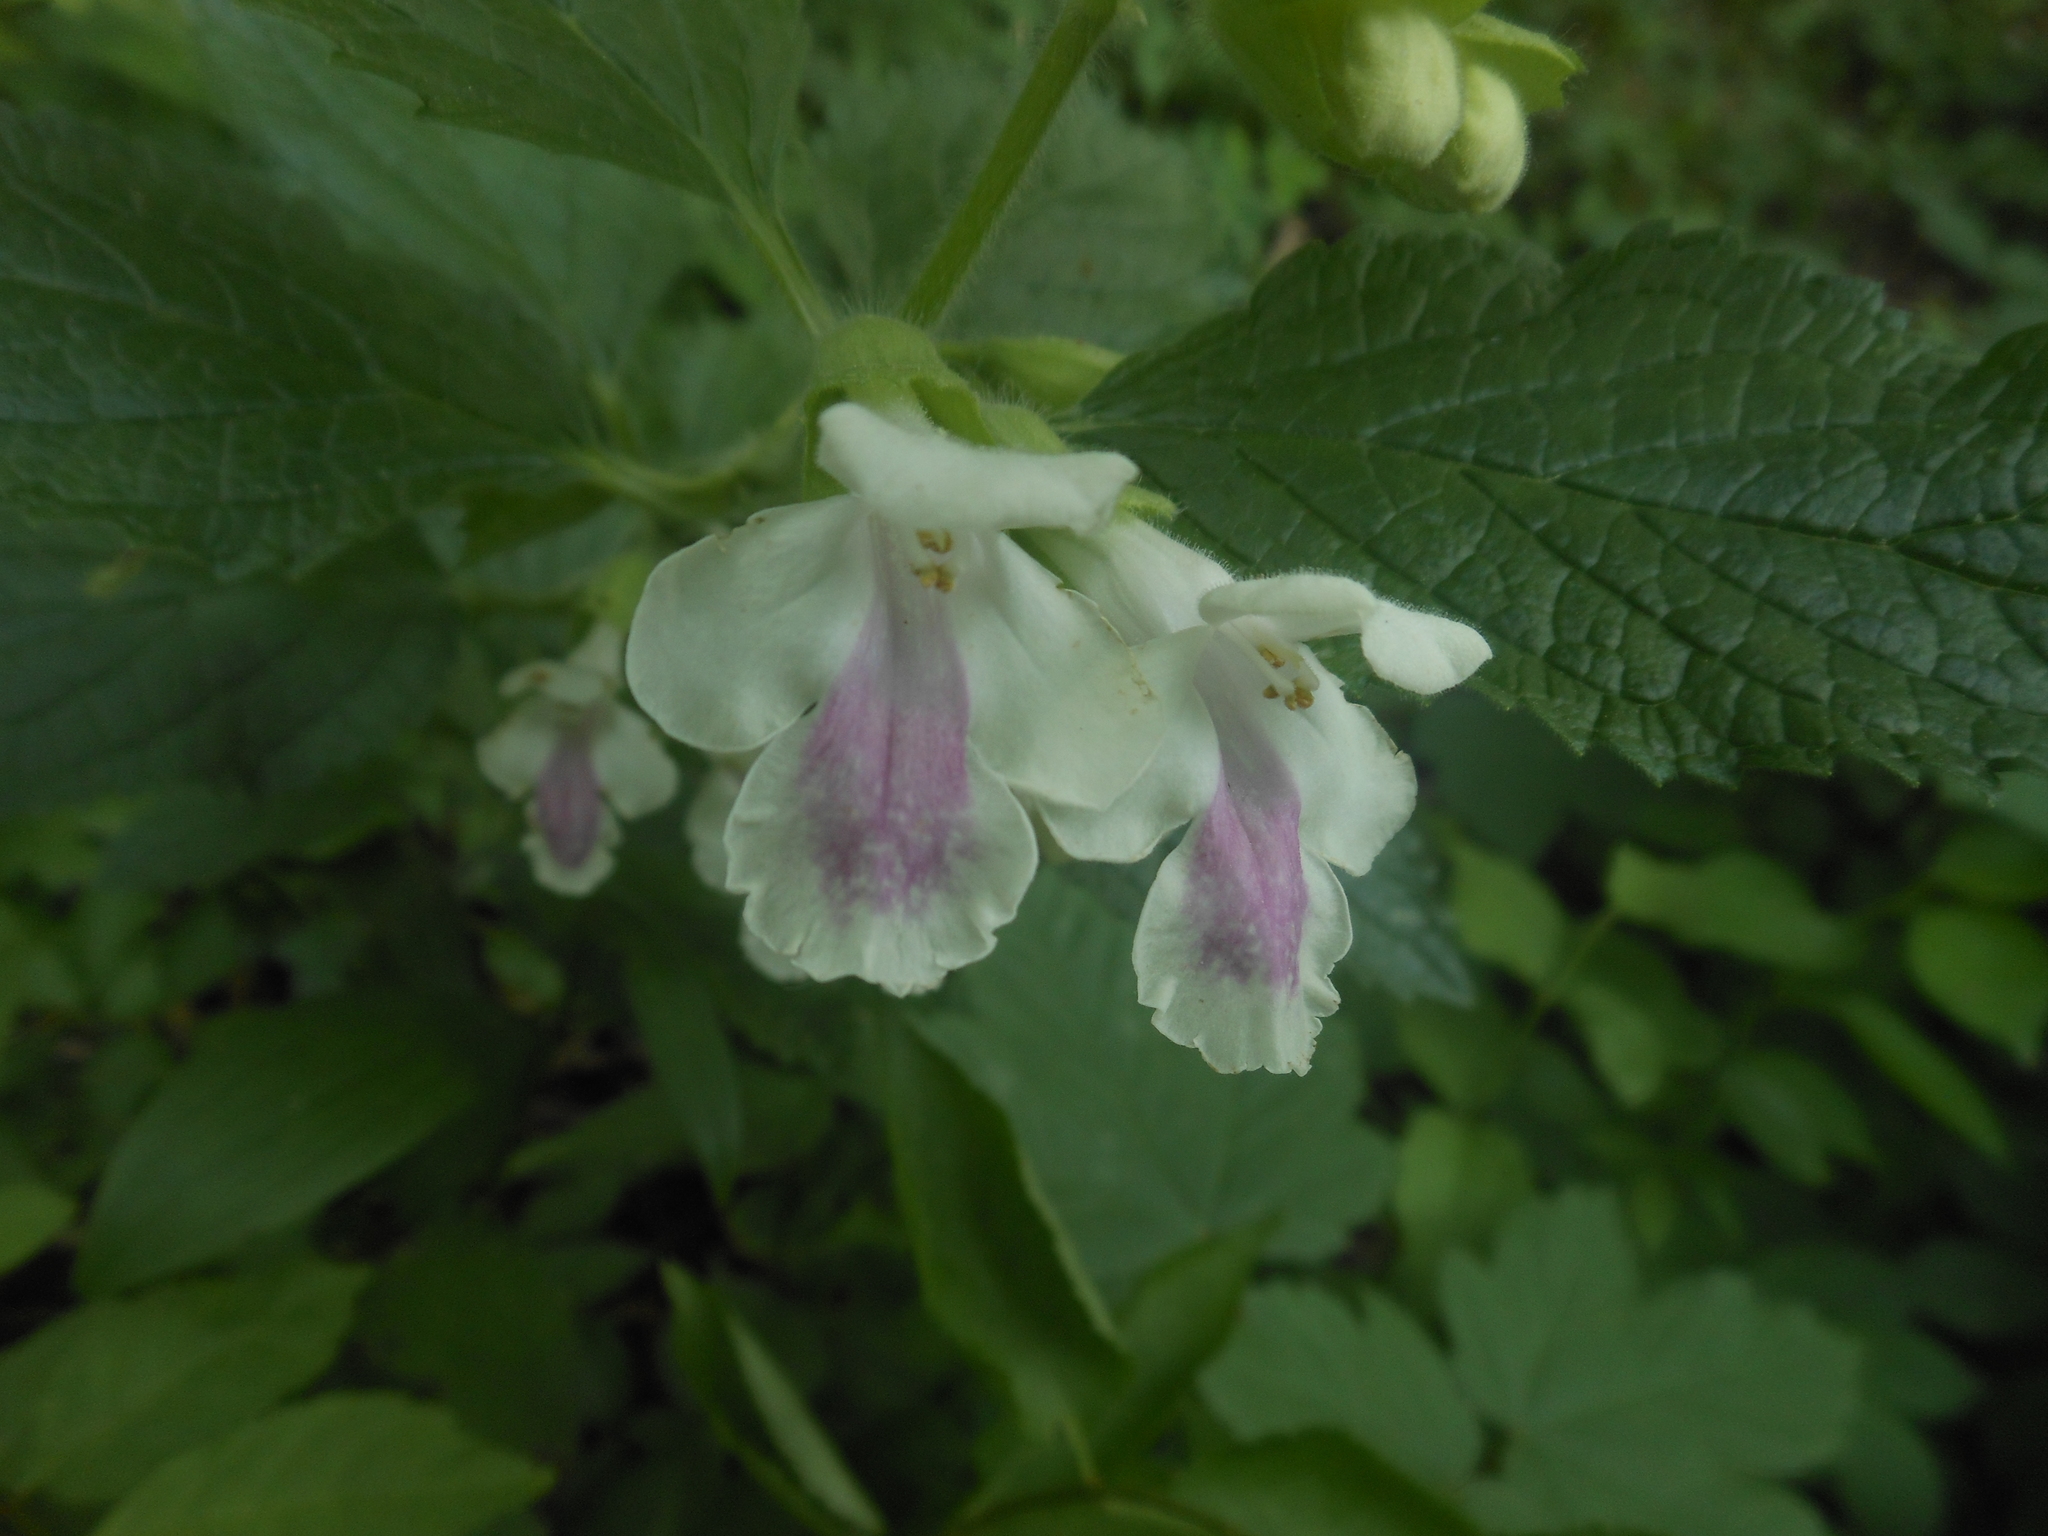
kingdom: Plantae
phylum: Tracheophyta
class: Magnoliopsida
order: Lamiales
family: Lamiaceae
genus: Melittis
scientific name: Melittis melissophyllum
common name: Bastard balm
